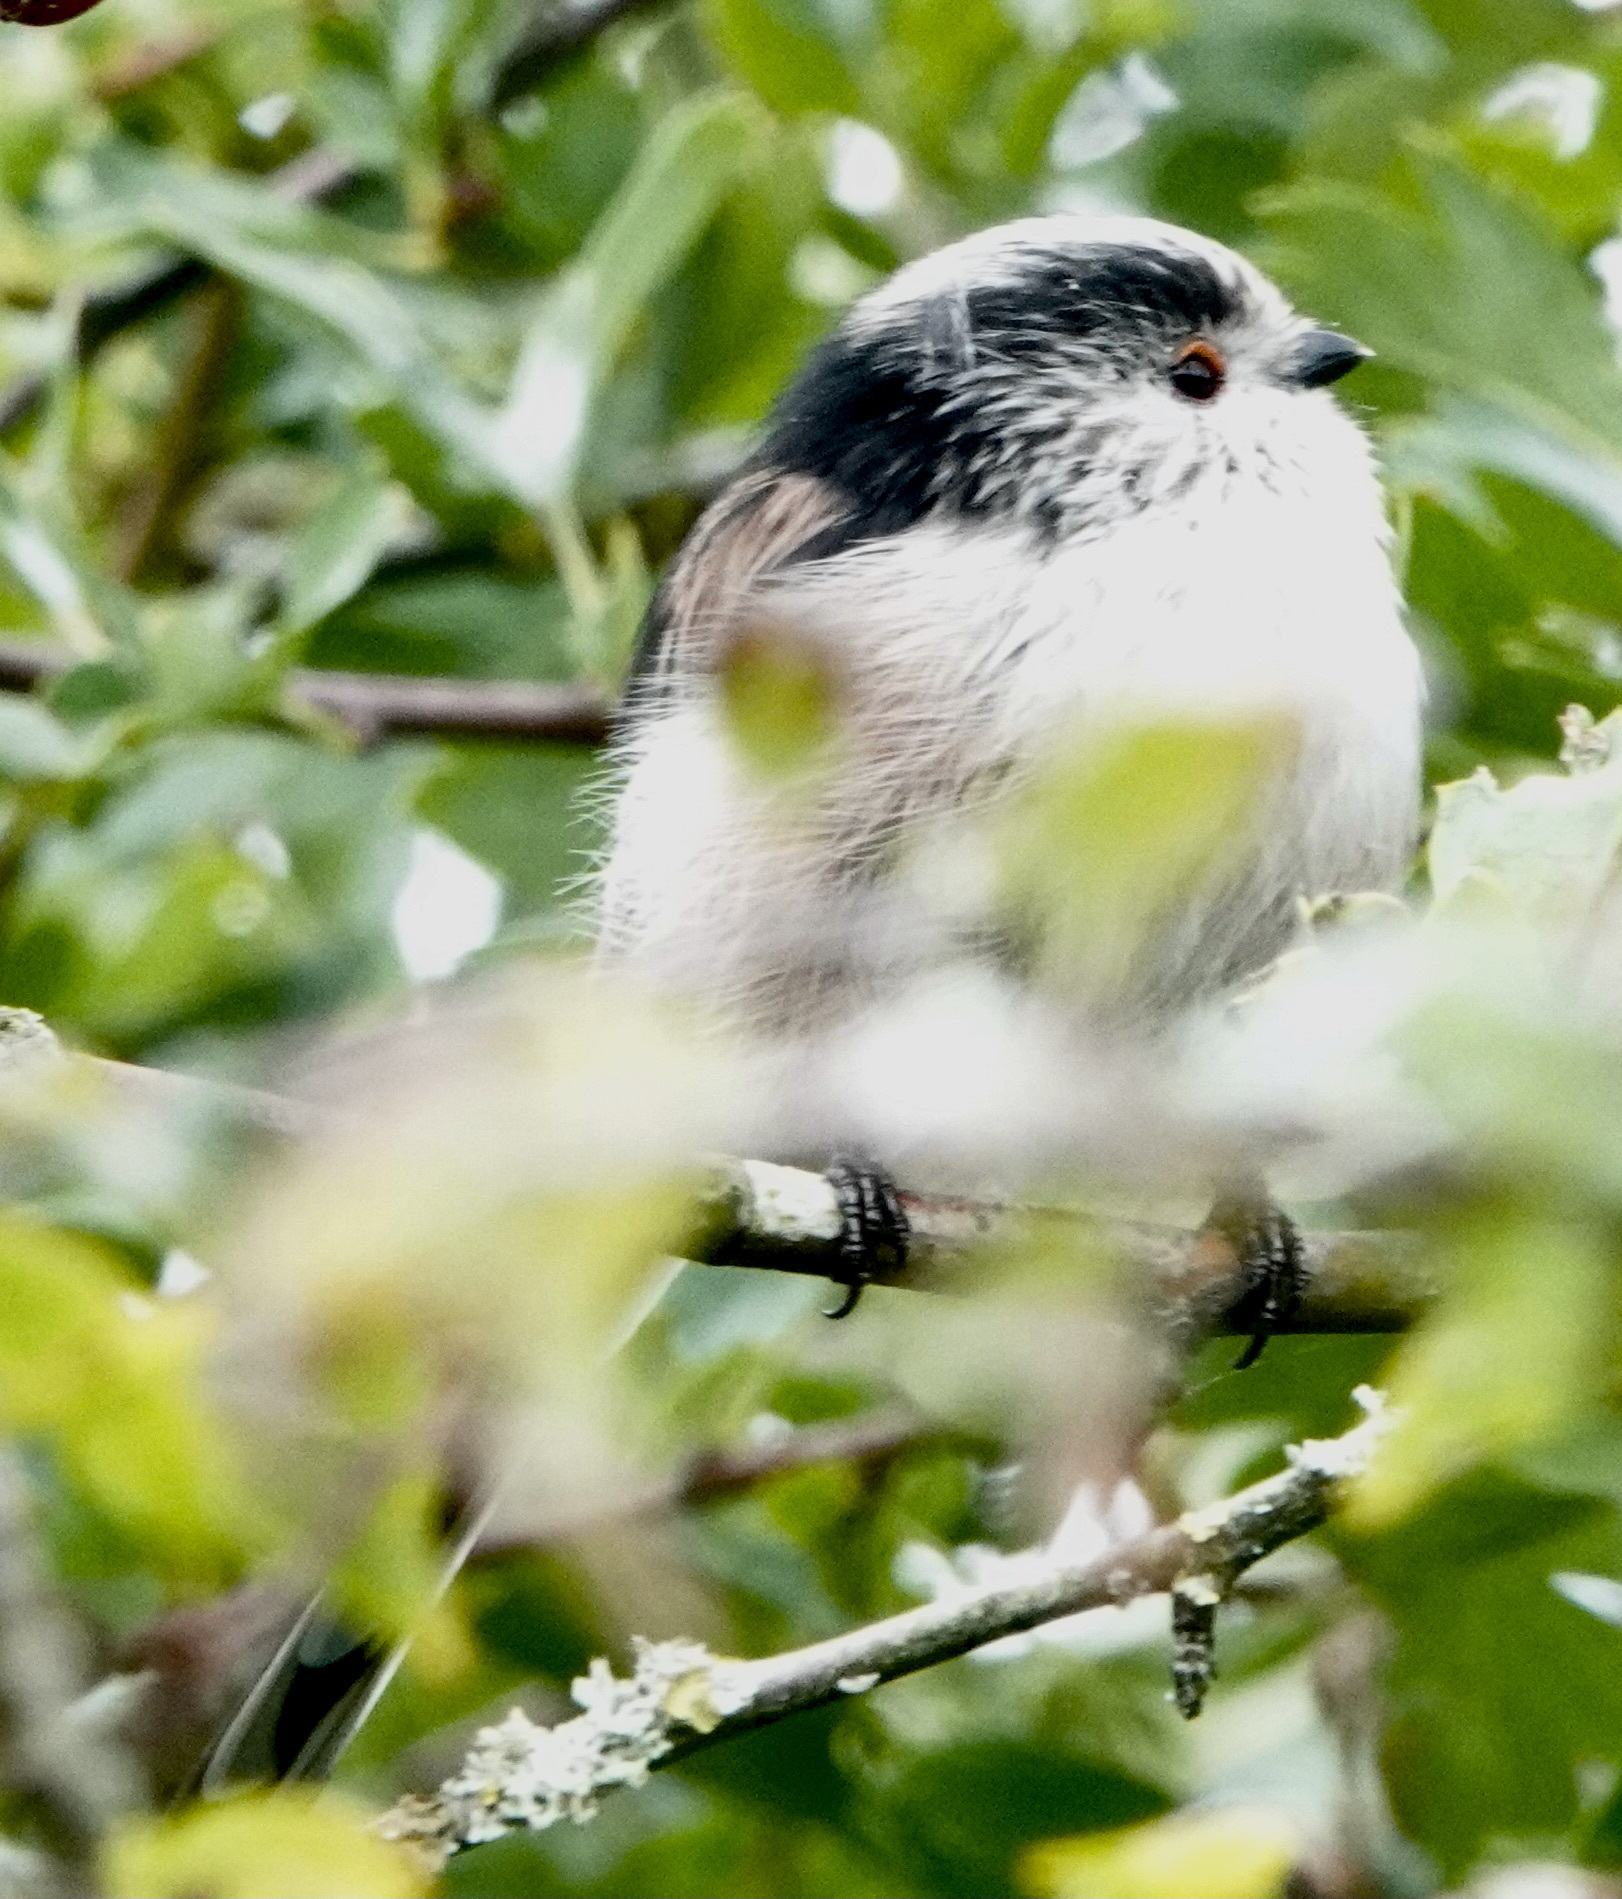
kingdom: Animalia
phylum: Chordata
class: Aves
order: Passeriformes
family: Aegithalidae
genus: Aegithalos
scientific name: Aegithalos caudatus
